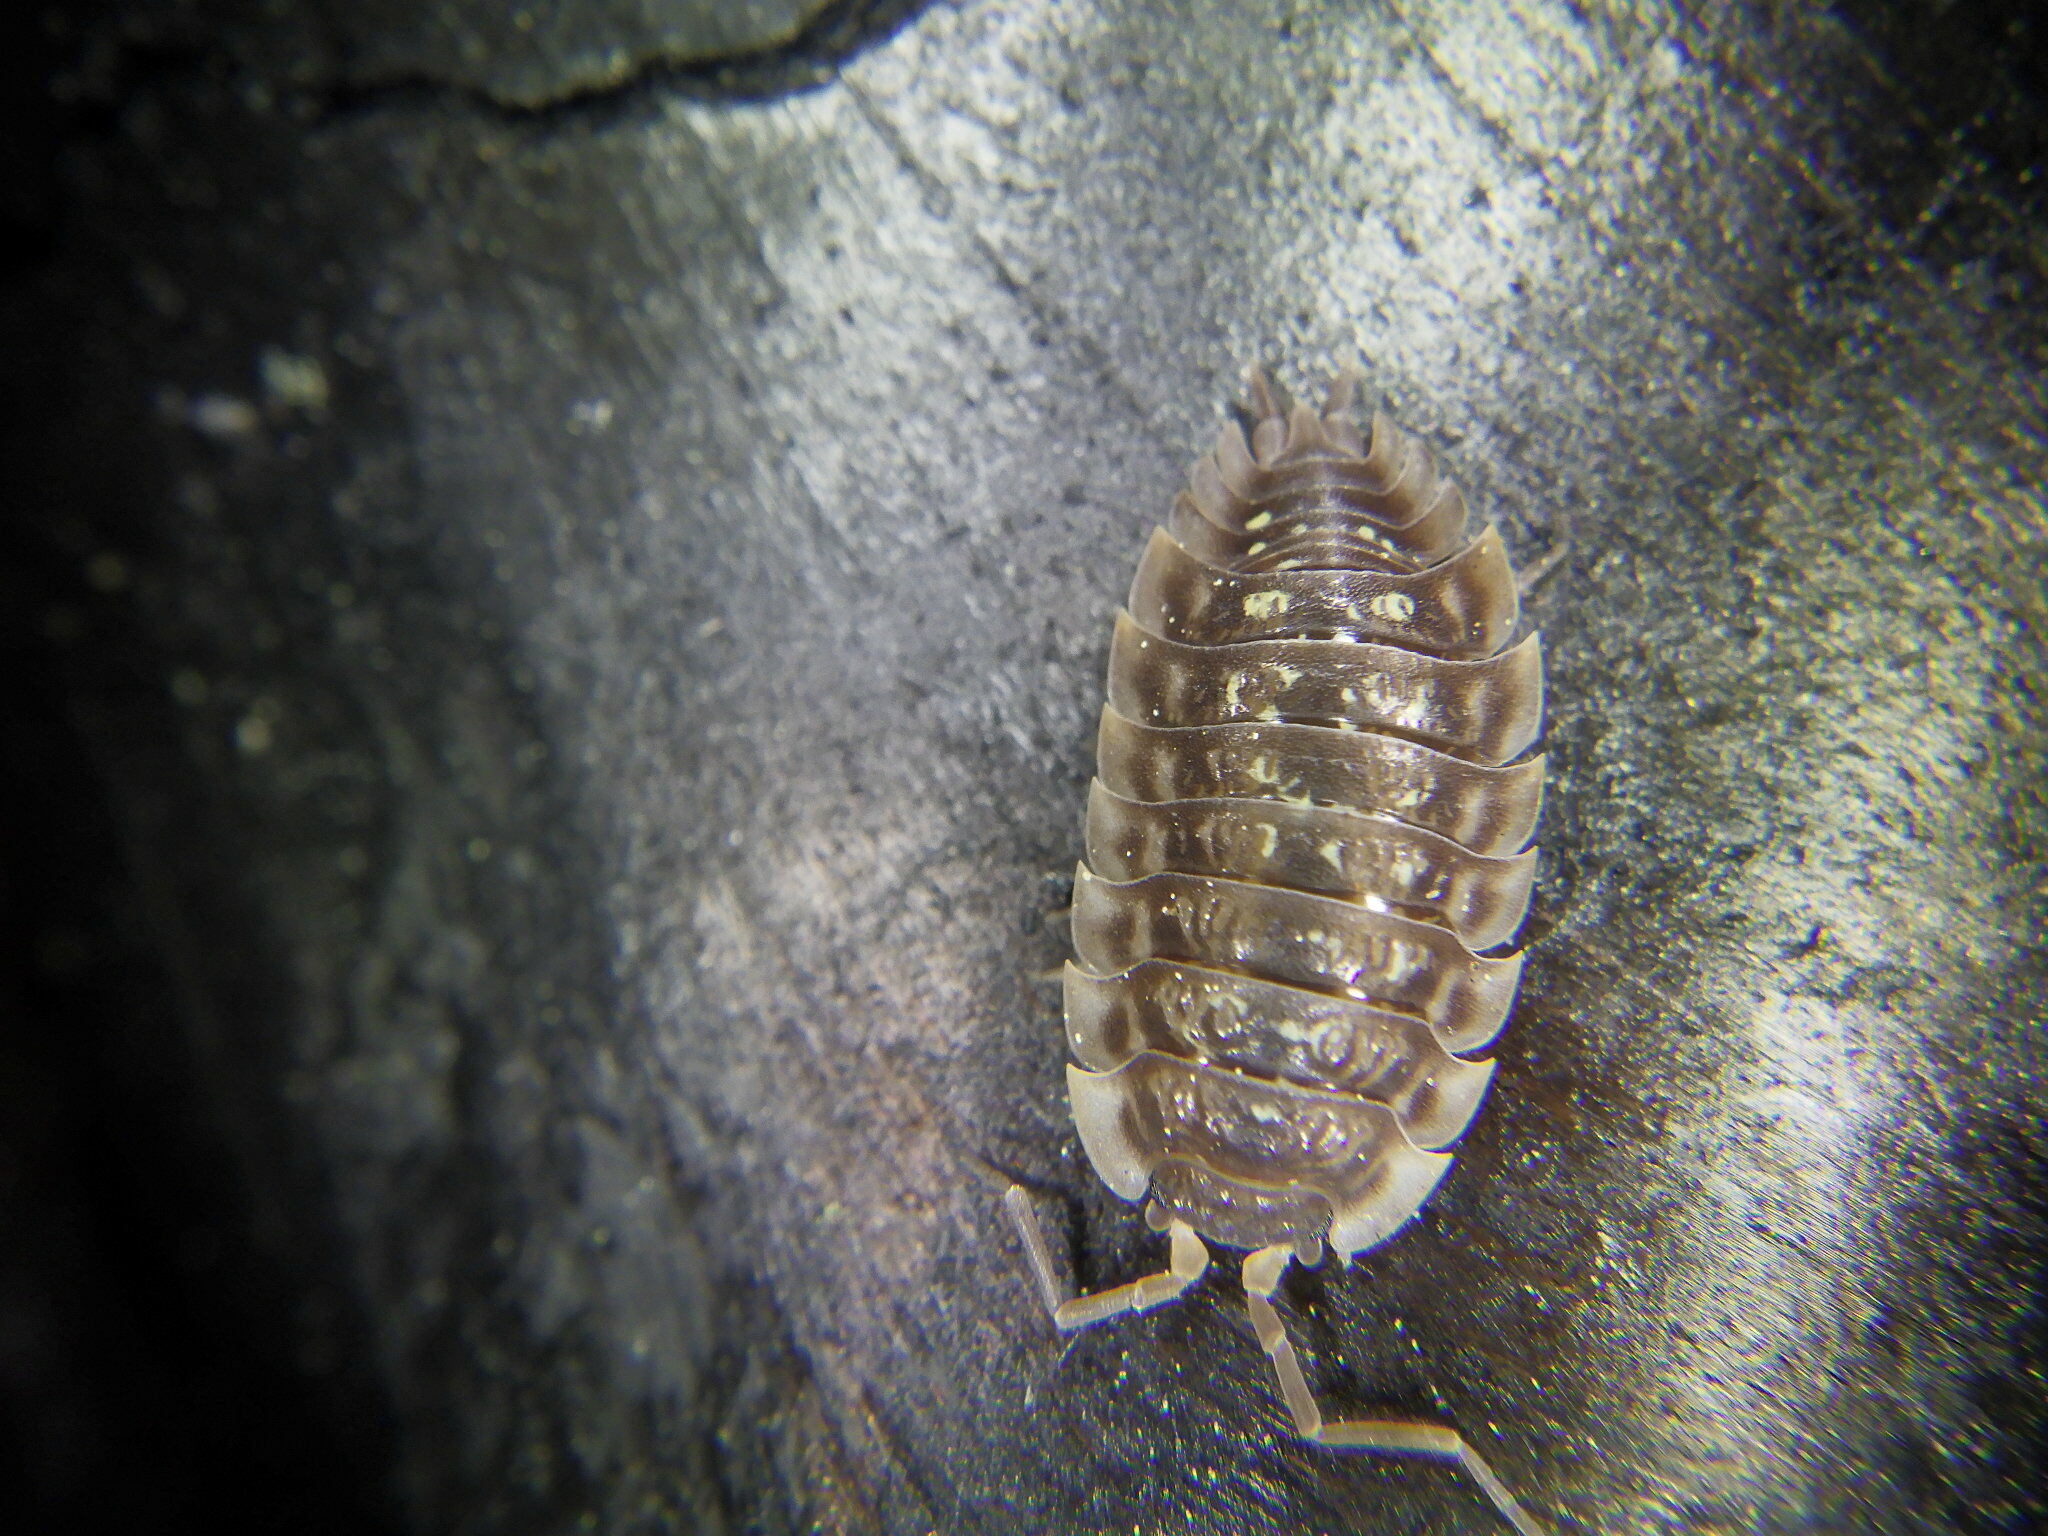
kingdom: Animalia
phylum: Arthropoda
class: Malacostraca
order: Isopoda
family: Oniscidae
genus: Oniscus
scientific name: Oniscus asellus
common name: Common shiny woodlouse
